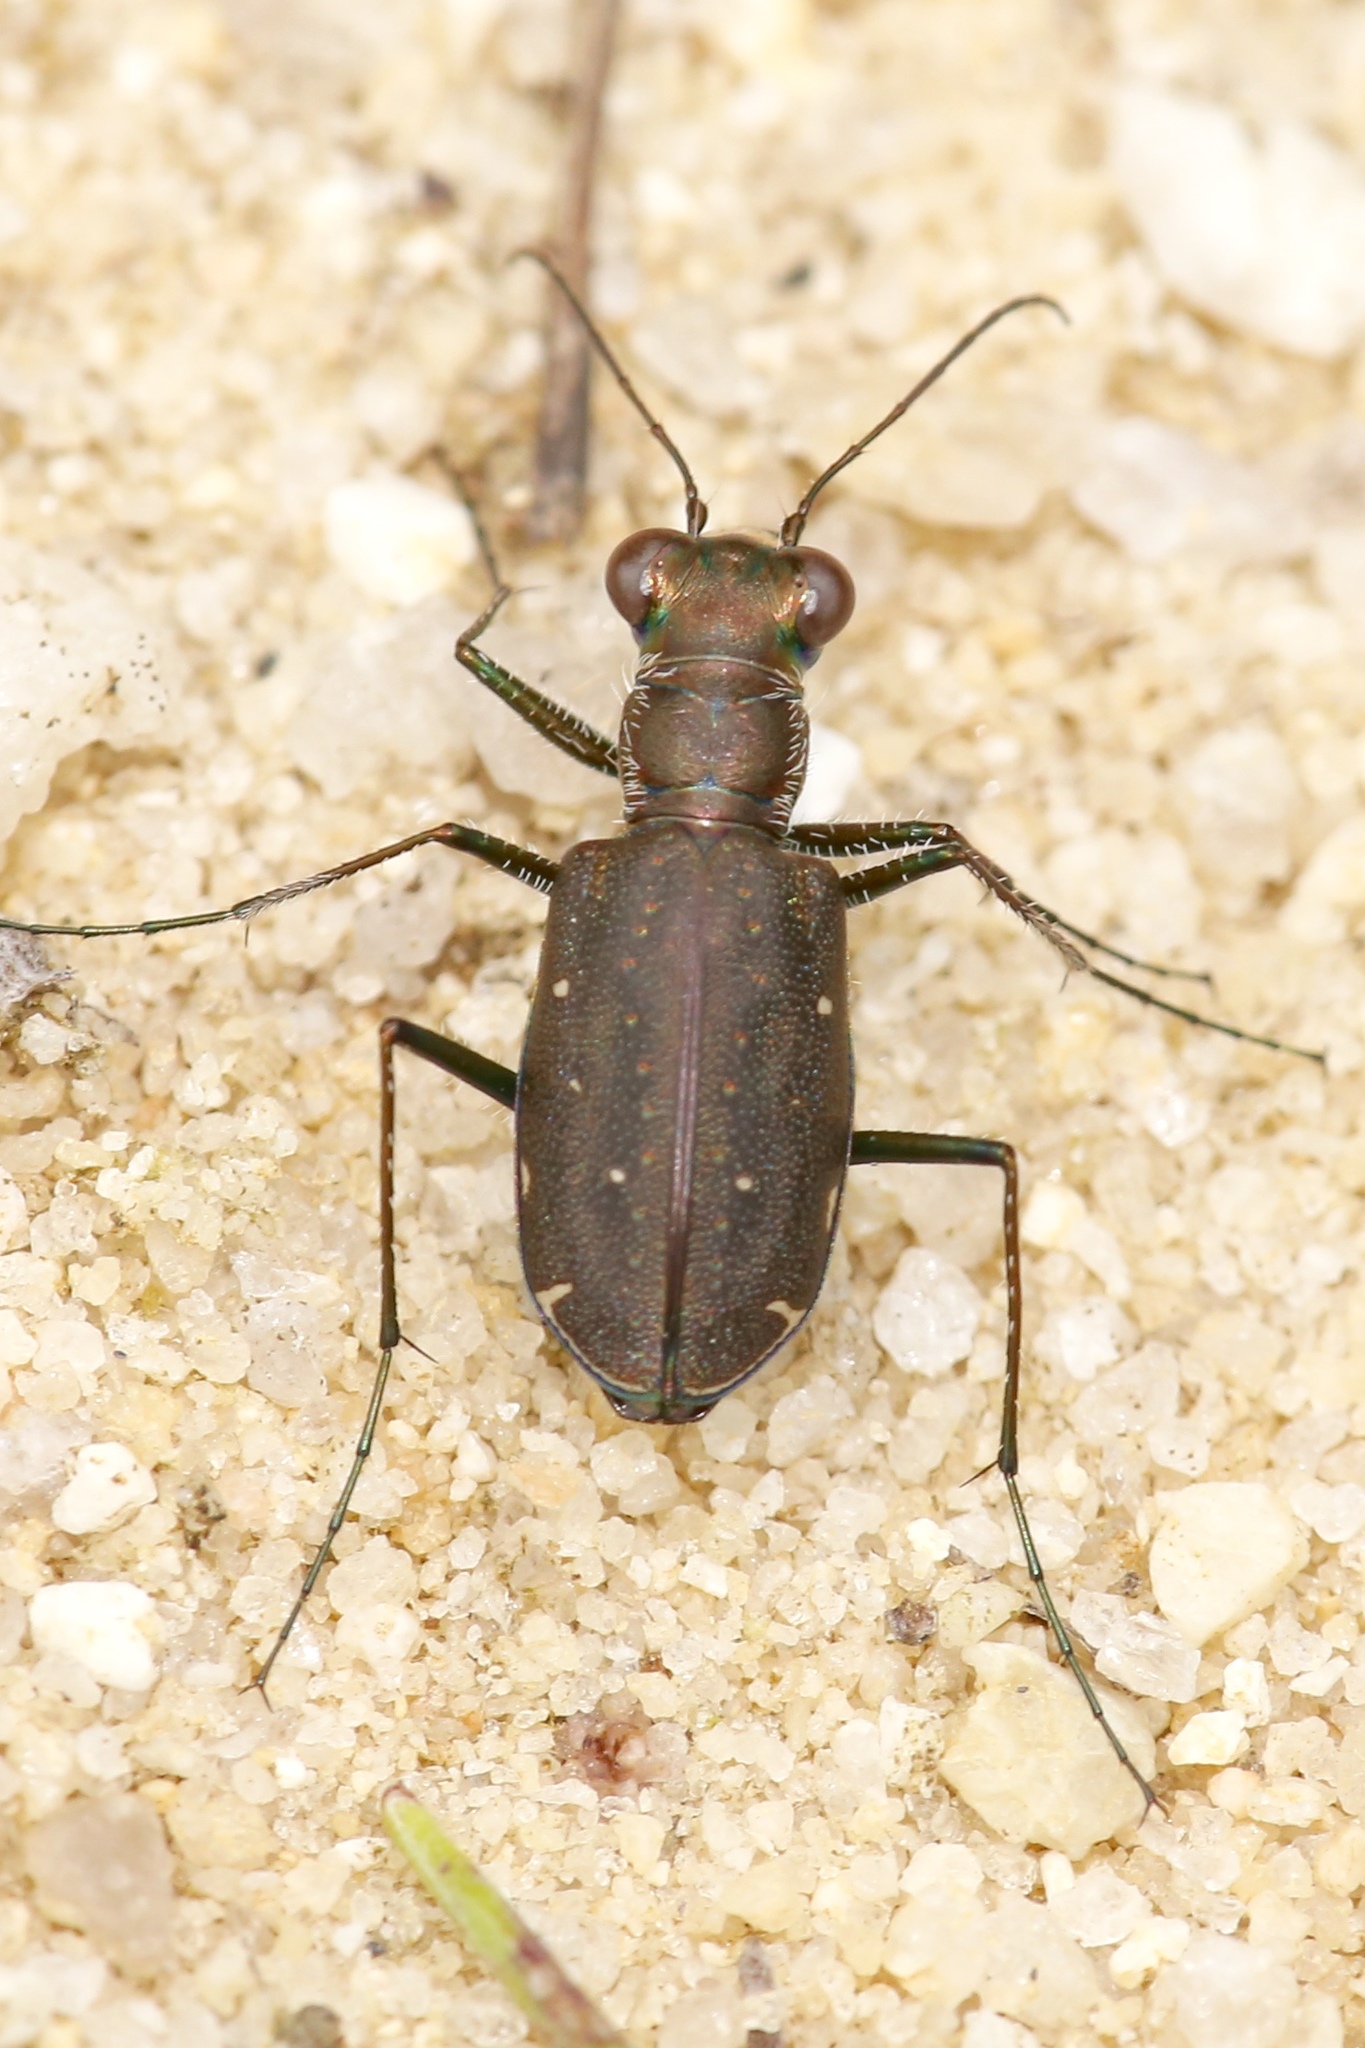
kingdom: Animalia
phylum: Arthropoda
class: Insecta
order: Coleoptera
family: Carabidae
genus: Cicindela
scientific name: Cicindela punctulata
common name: Punctured tiger beetle
